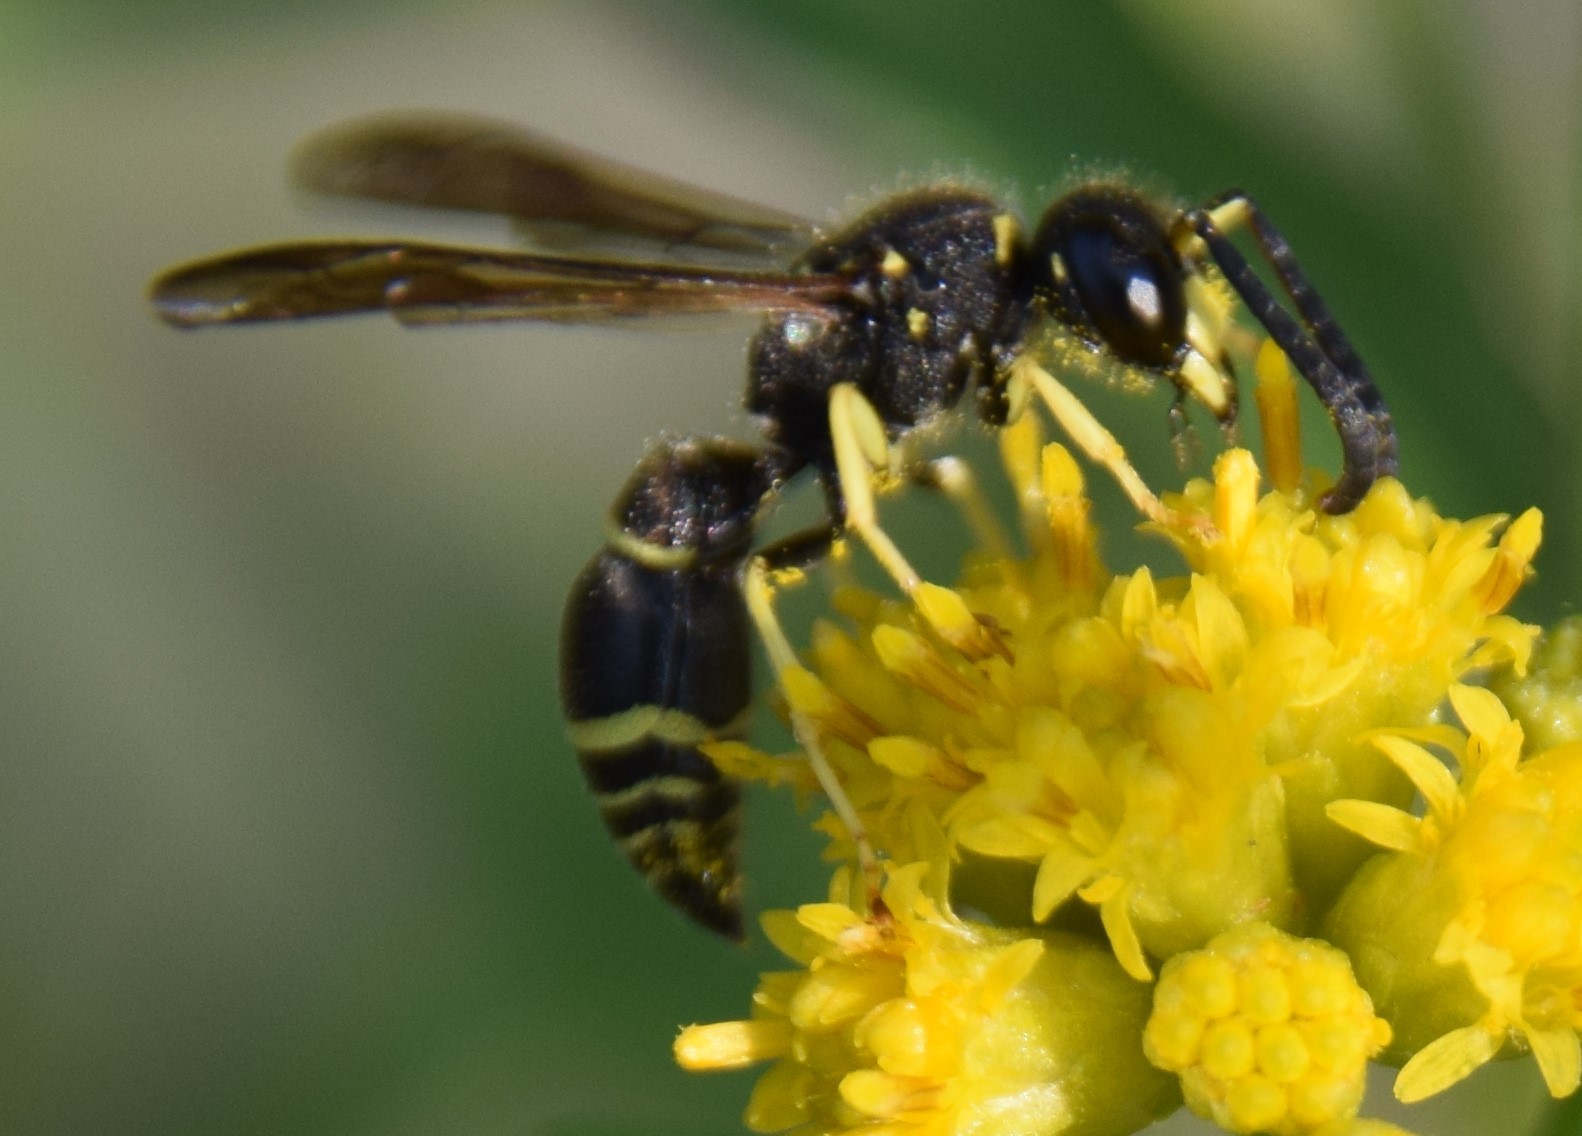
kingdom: Animalia
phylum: Arthropoda
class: Insecta
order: Hymenoptera
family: Vespidae
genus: Ancistrocerus
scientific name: Ancistrocerus
